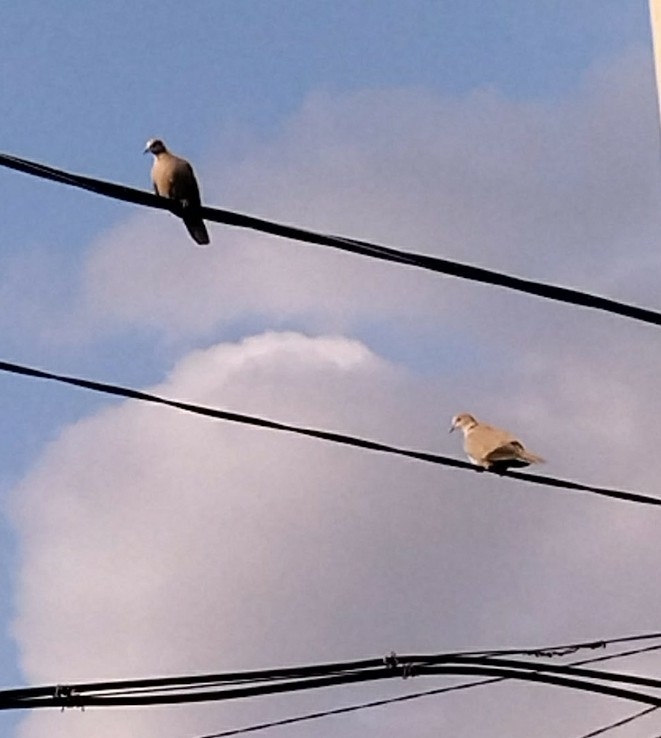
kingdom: Animalia
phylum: Chordata
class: Aves
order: Columbiformes
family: Columbidae
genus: Streptopelia
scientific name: Streptopelia decaocto
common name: Eurasian collared dove
